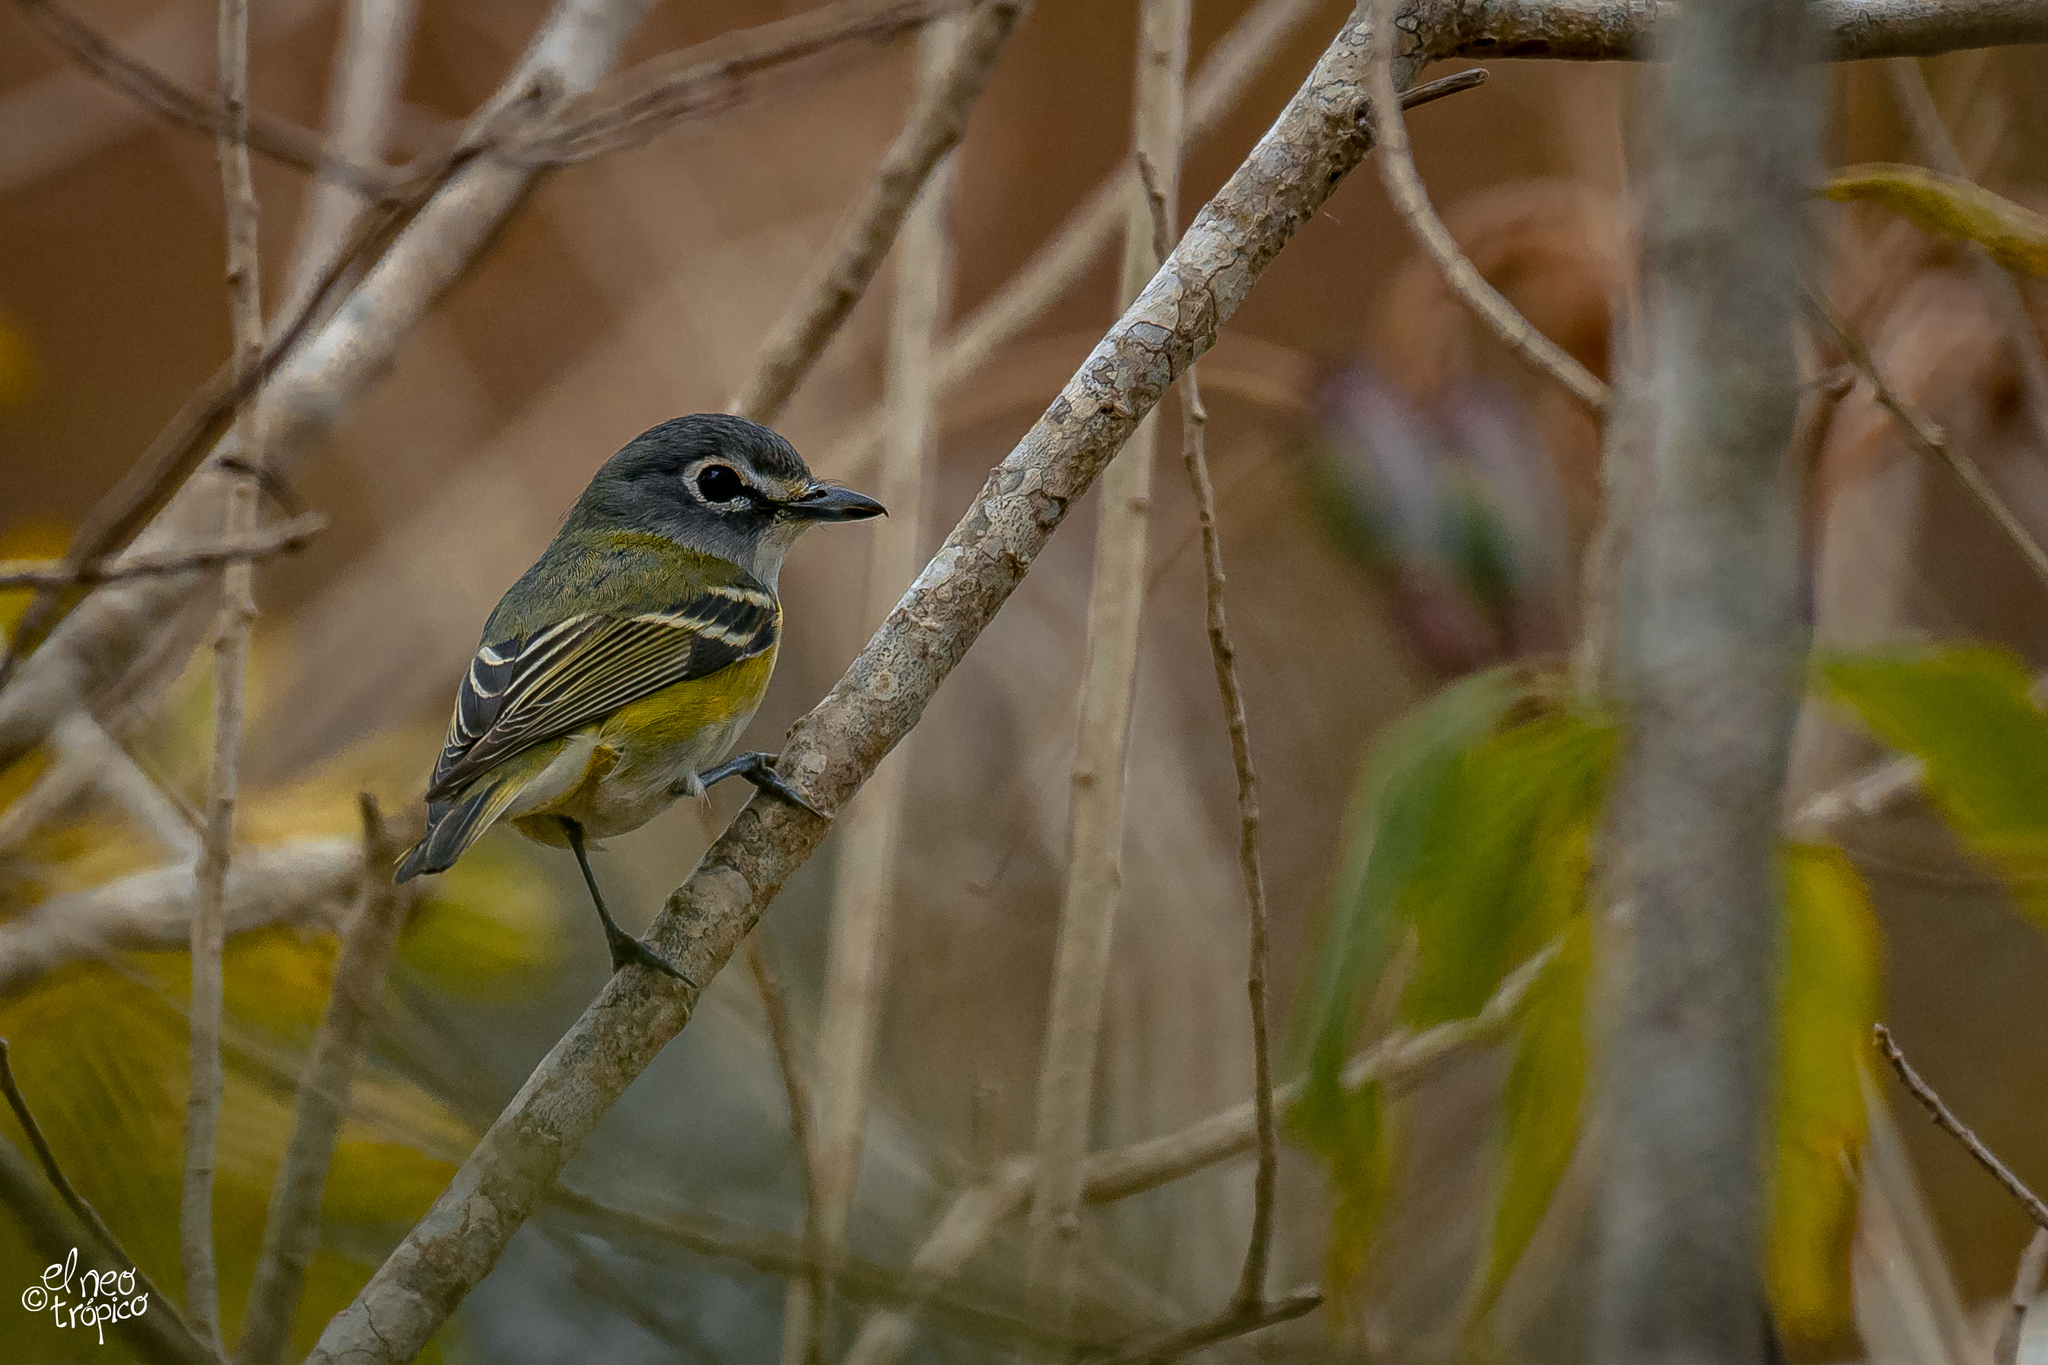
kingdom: Animalia
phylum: Chordata
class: Aves
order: Passeriformes
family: Vireonidae
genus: Vireo
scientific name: Vireo solitarius
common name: Blue-headed vireo
